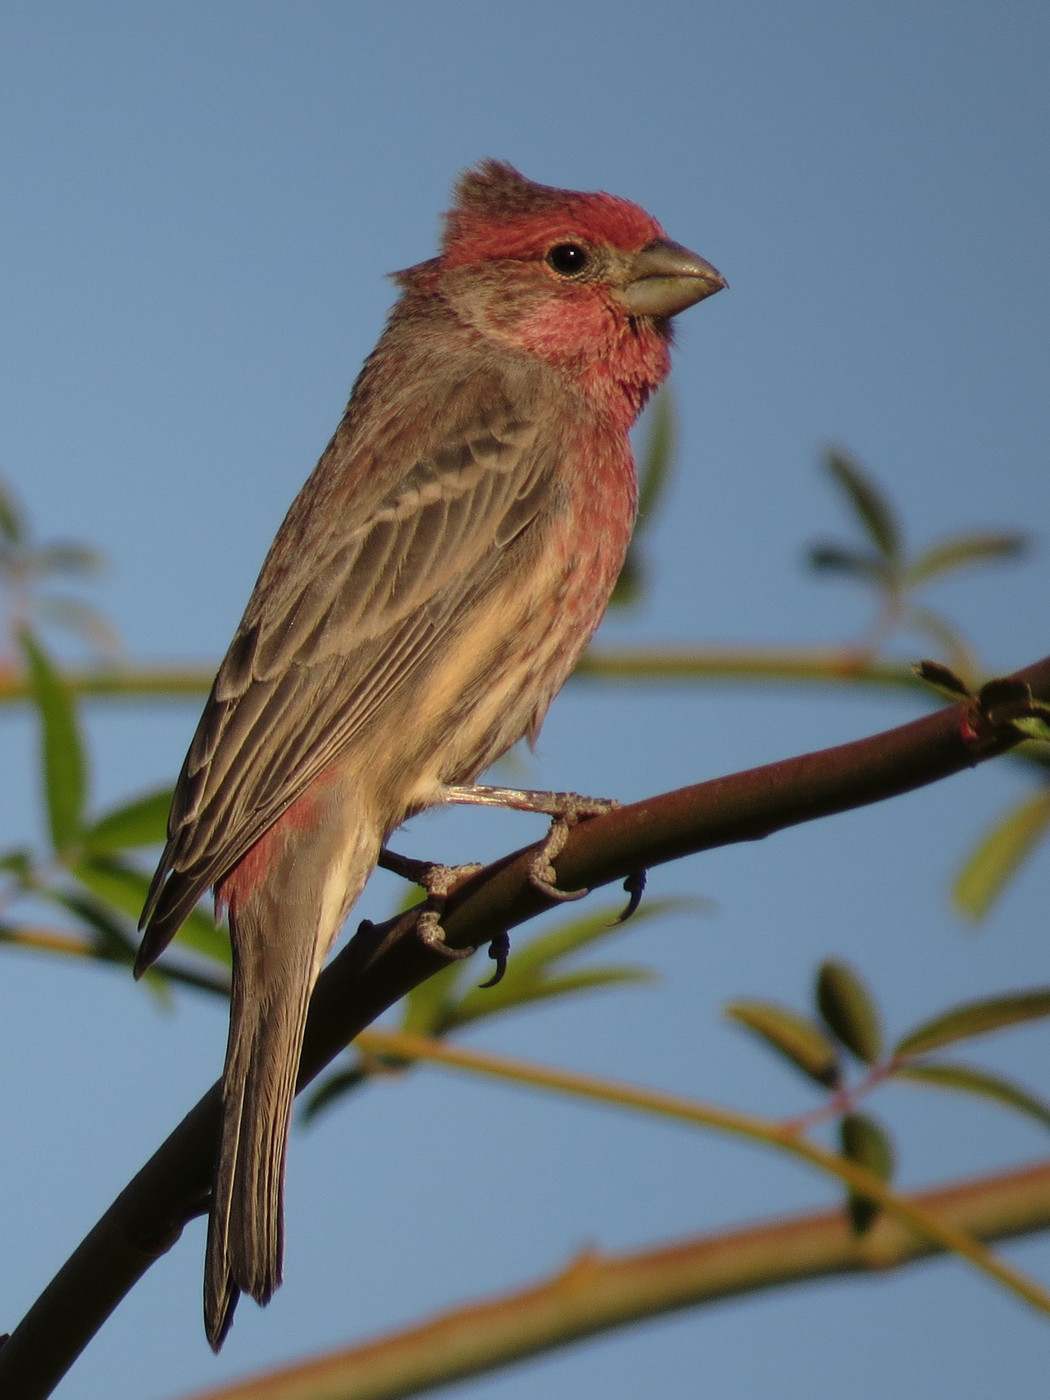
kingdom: Animalia
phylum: Chordata
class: Aves
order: Passeriformes
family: Fringillidae
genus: Haemorhous
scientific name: Haemorhous mexicanus
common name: House finch
